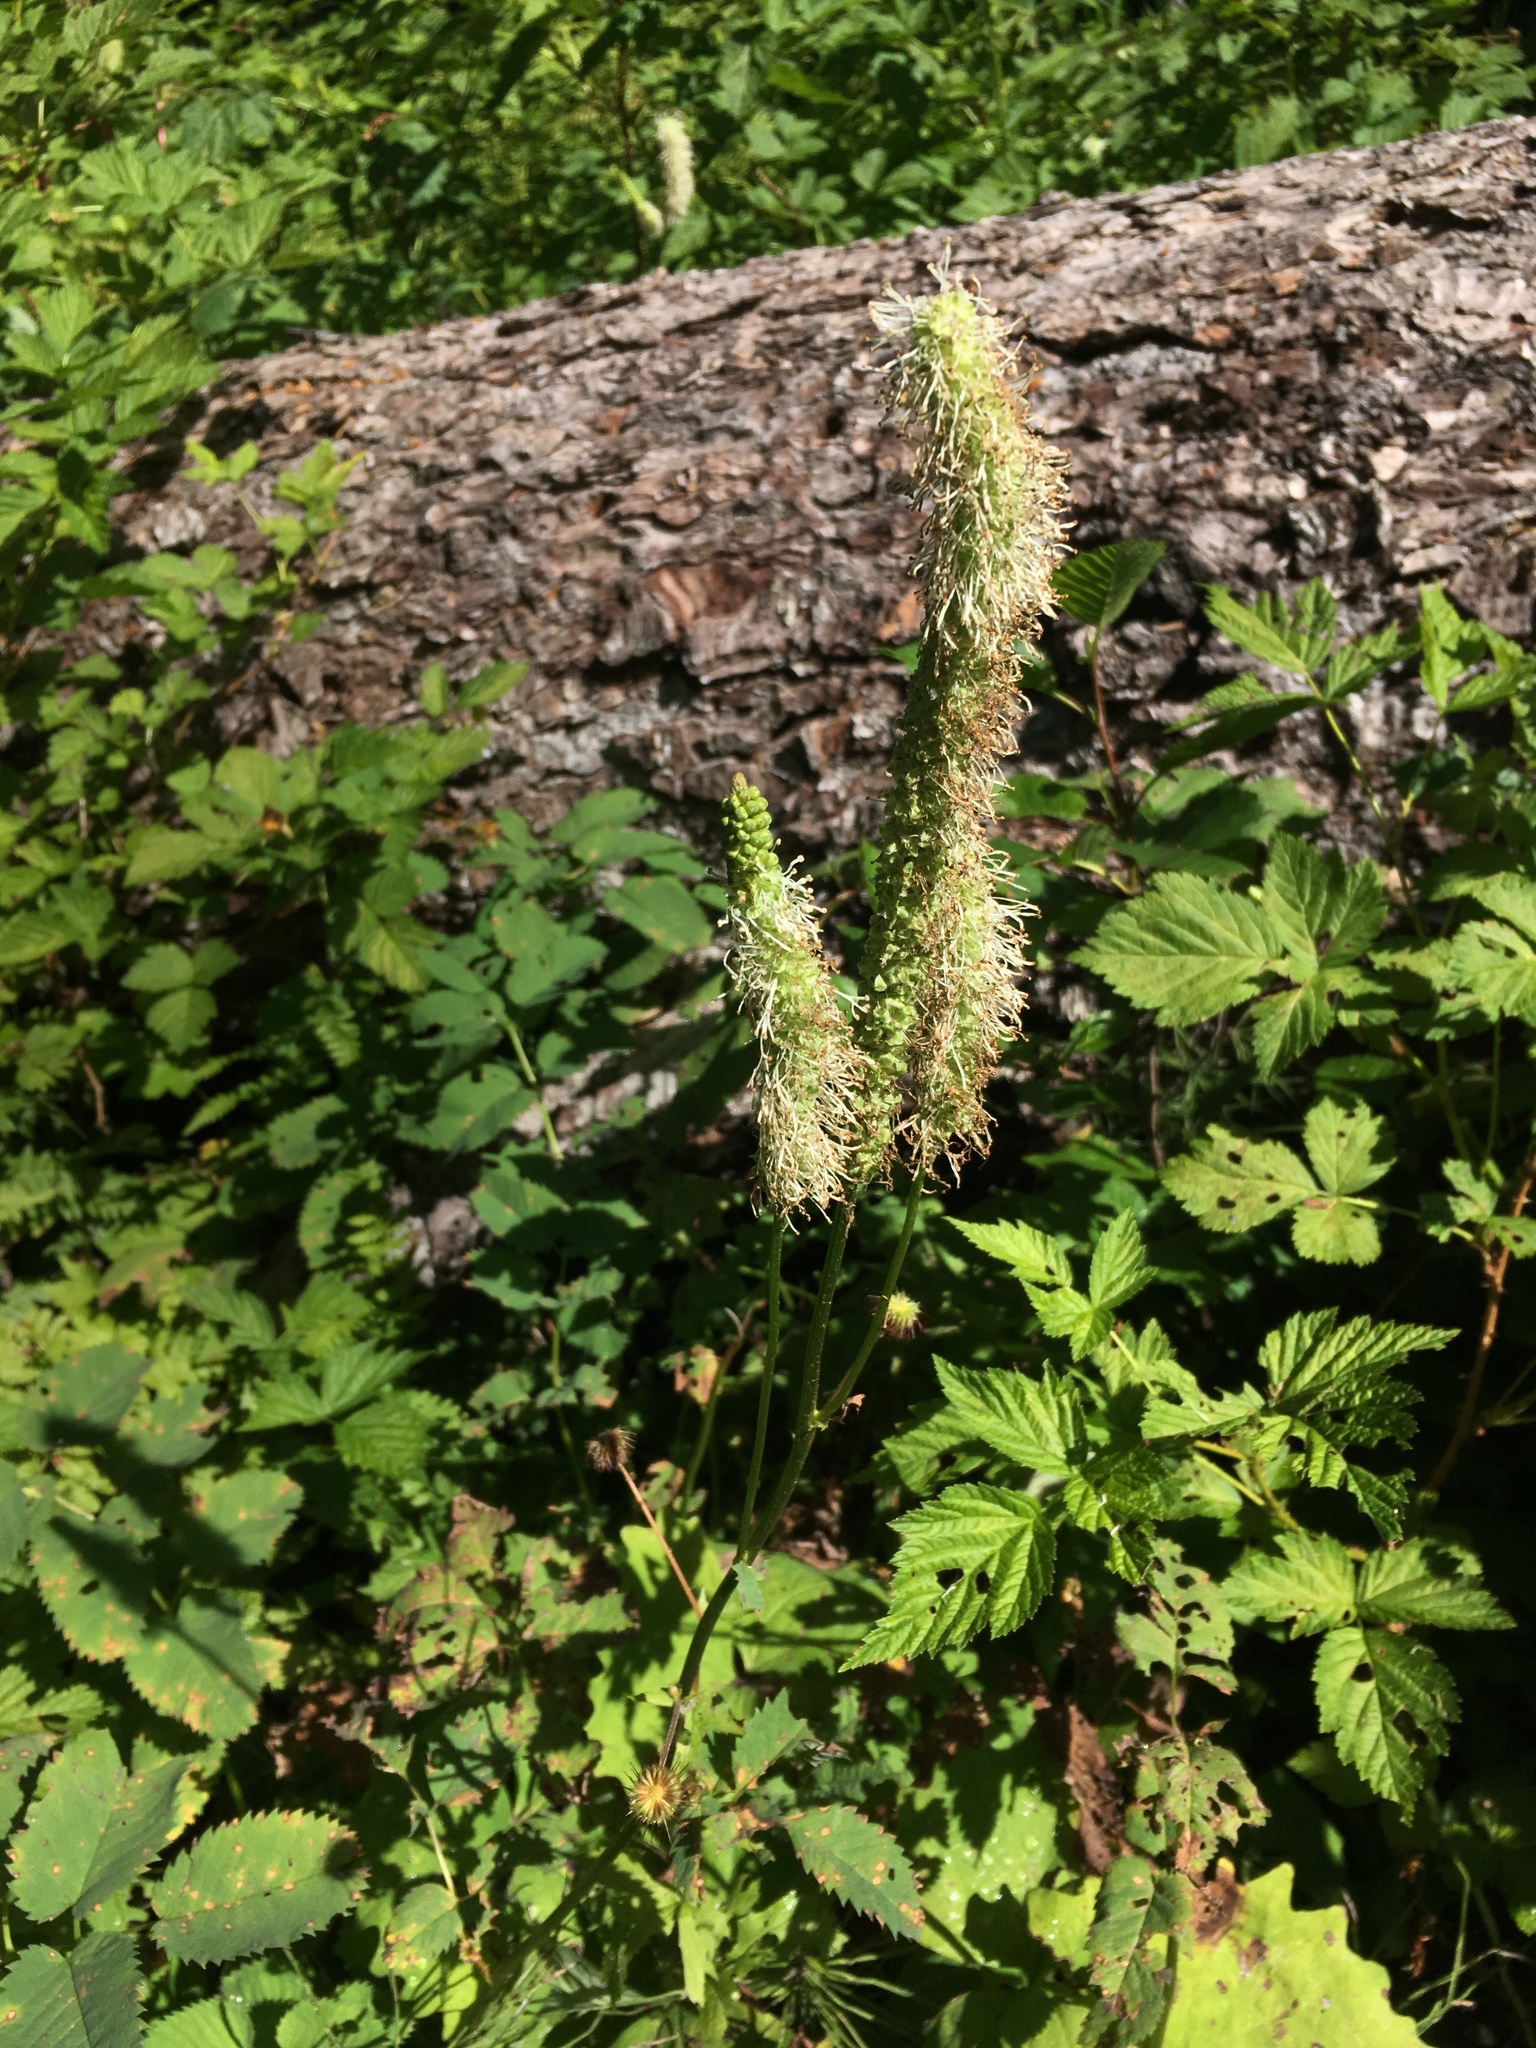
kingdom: Plantae
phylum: Tracheophyta
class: Magnoliopsida
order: Rosales
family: Rosaceae
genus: Sanguisorba
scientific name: Sanguisorba stipulata
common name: Sitka burnet
